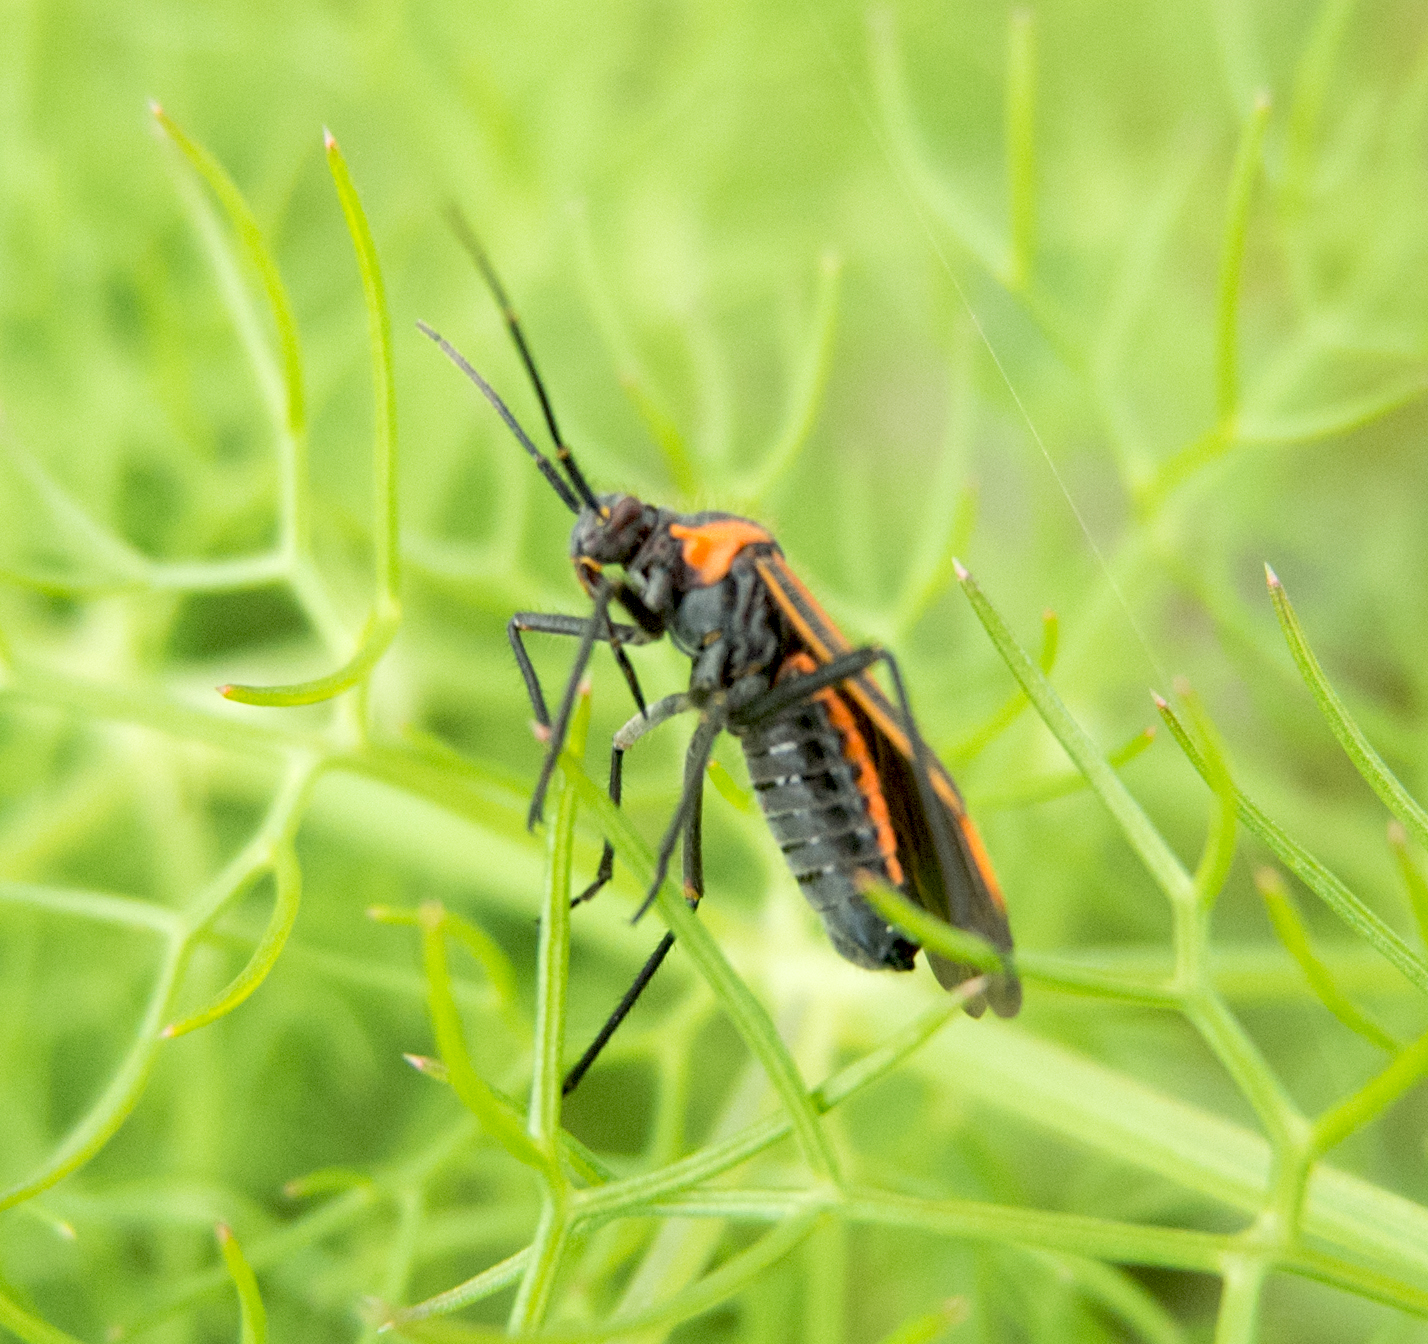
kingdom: Animalia
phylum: Arthropoda
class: Insecta
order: Hemiptera
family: Miridae
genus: Horistus
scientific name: Horistus infuscatus
